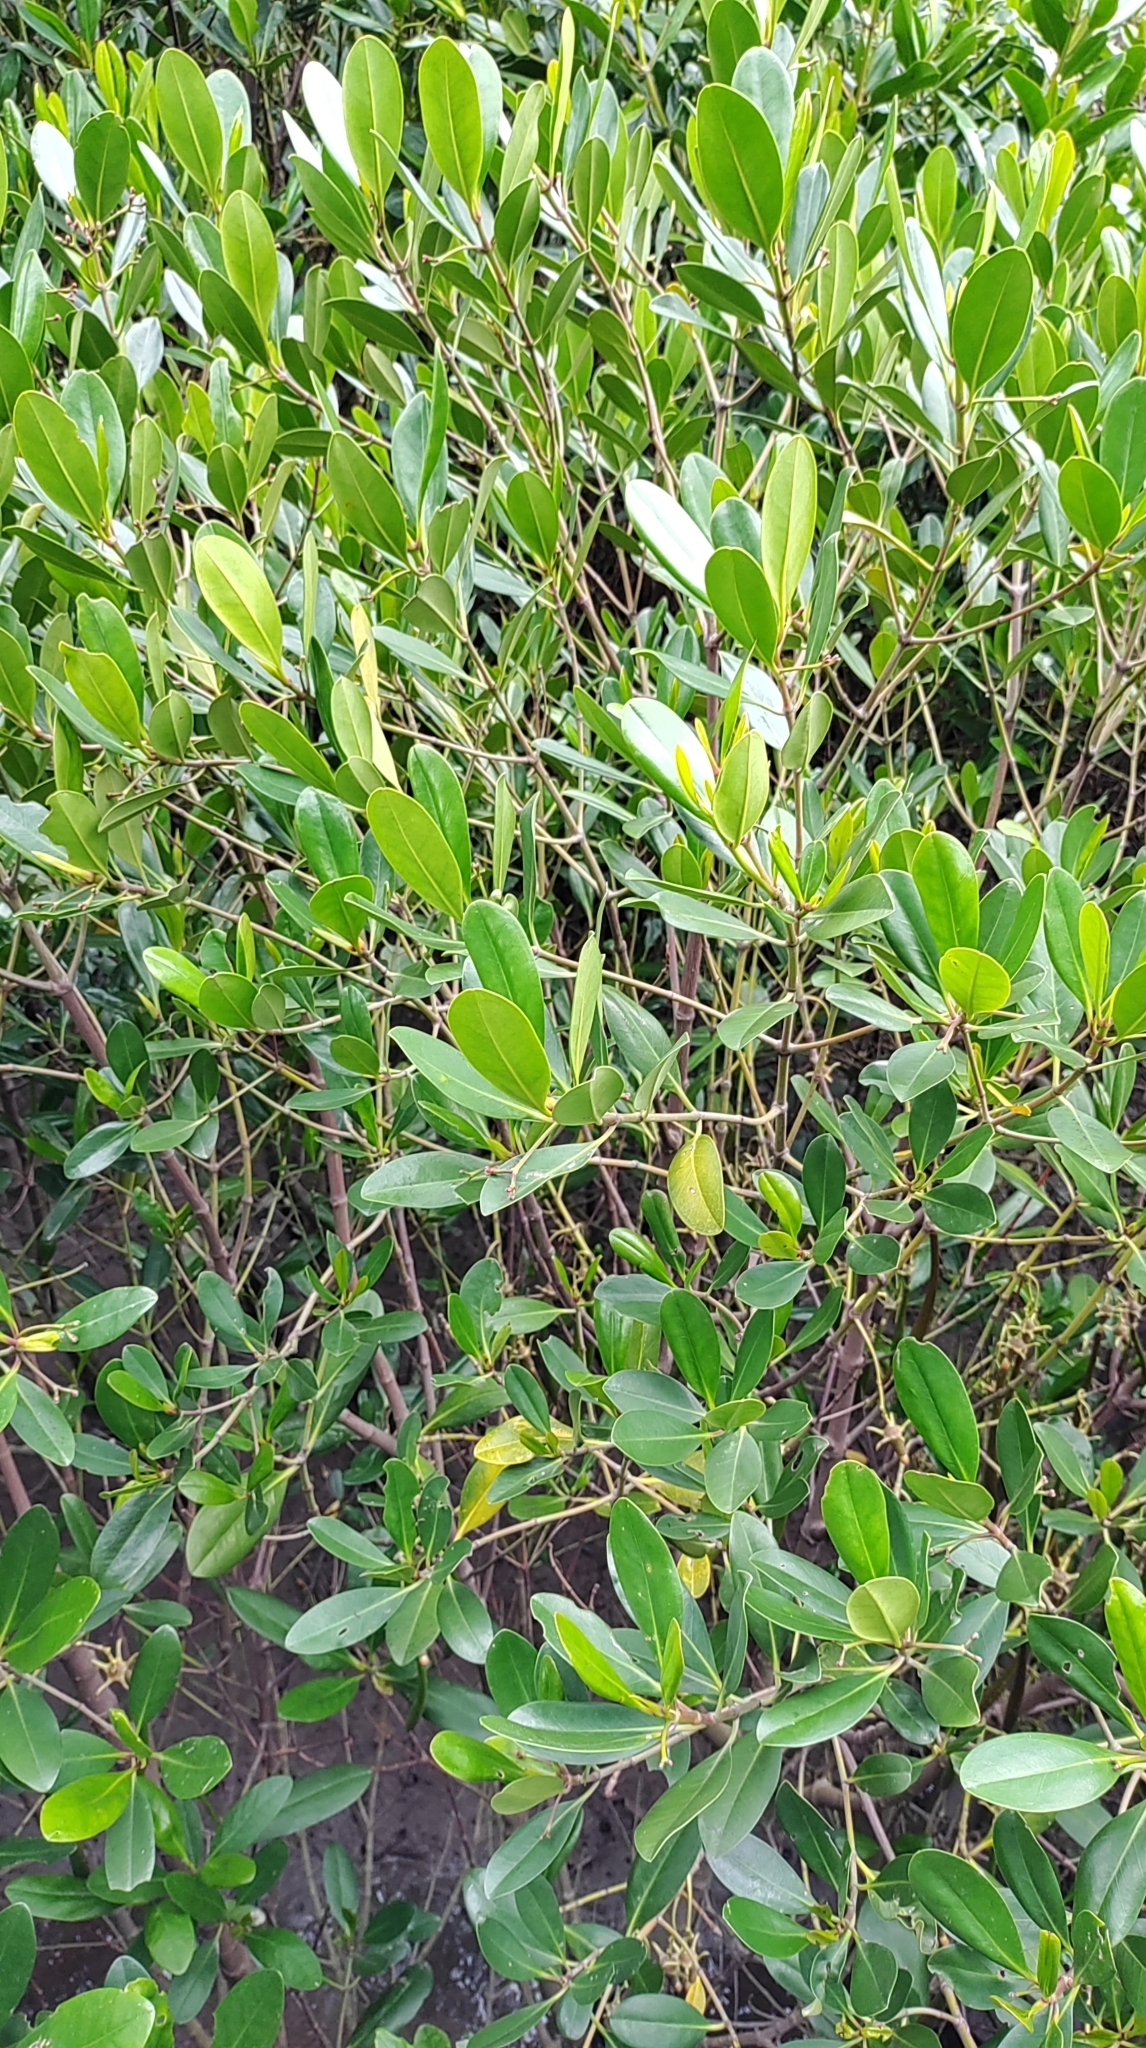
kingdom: Plantae
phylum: Tracheophyta
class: Magnoliopsida
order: Malpighiales
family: Rhizophoraceae
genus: Kandelia
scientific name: Kandelia obovata
